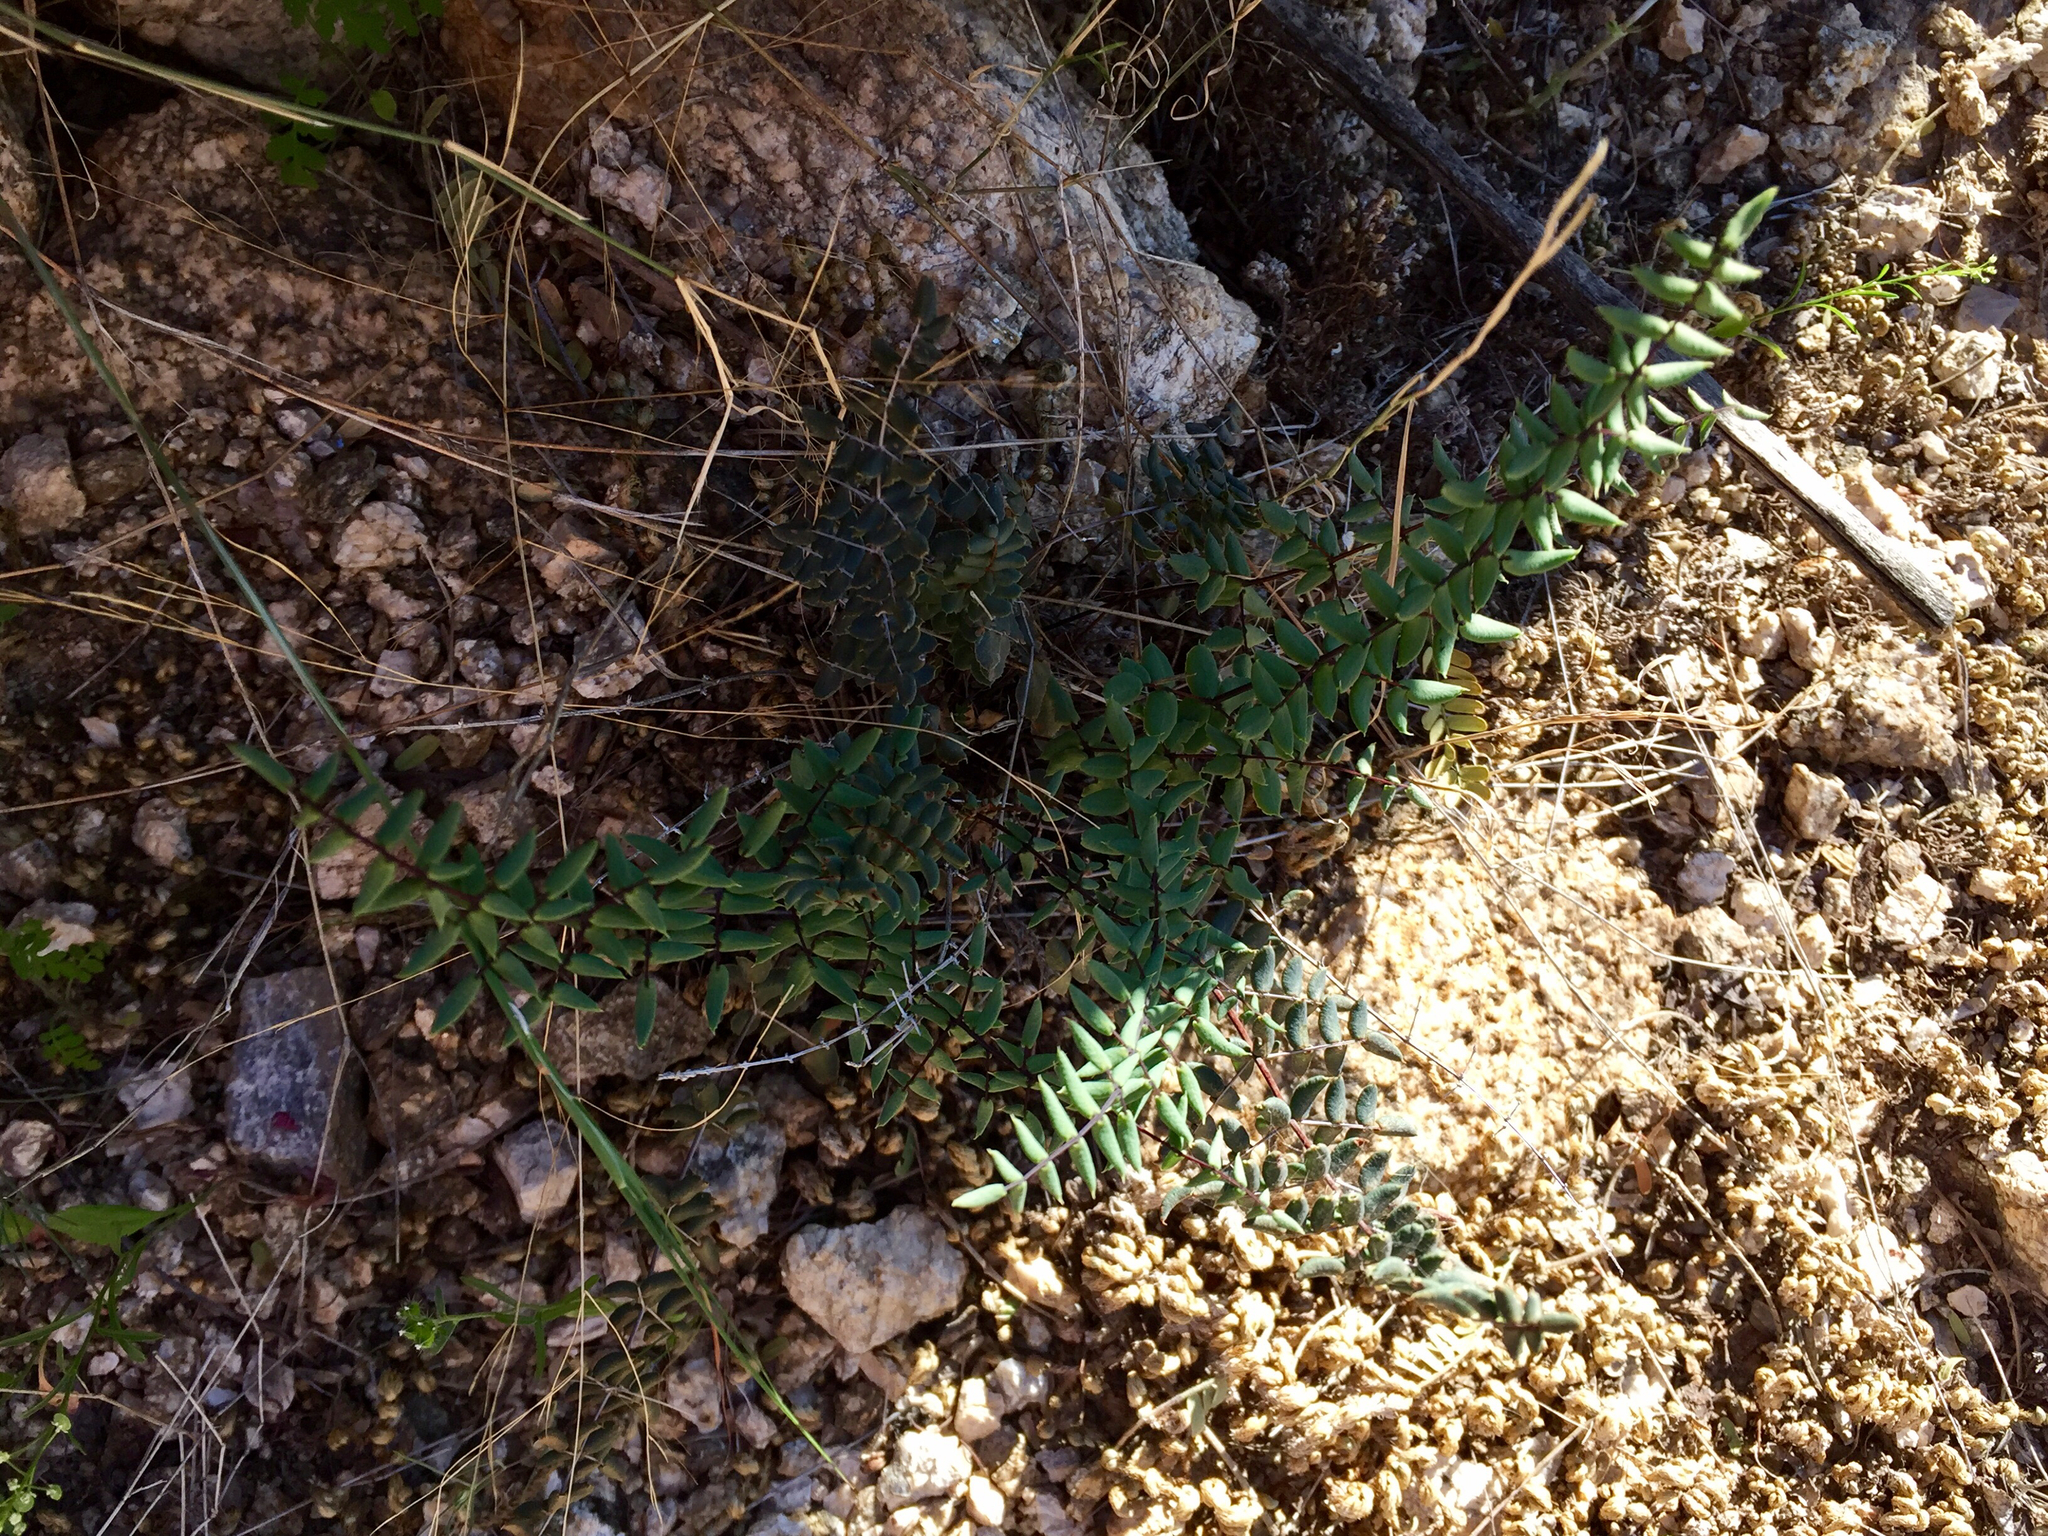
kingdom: Plantae
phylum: Tracheophyta
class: Polypodiopsida
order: Polypodiales
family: Pteridaceae
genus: Pellaea
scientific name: Pellaea truncata
